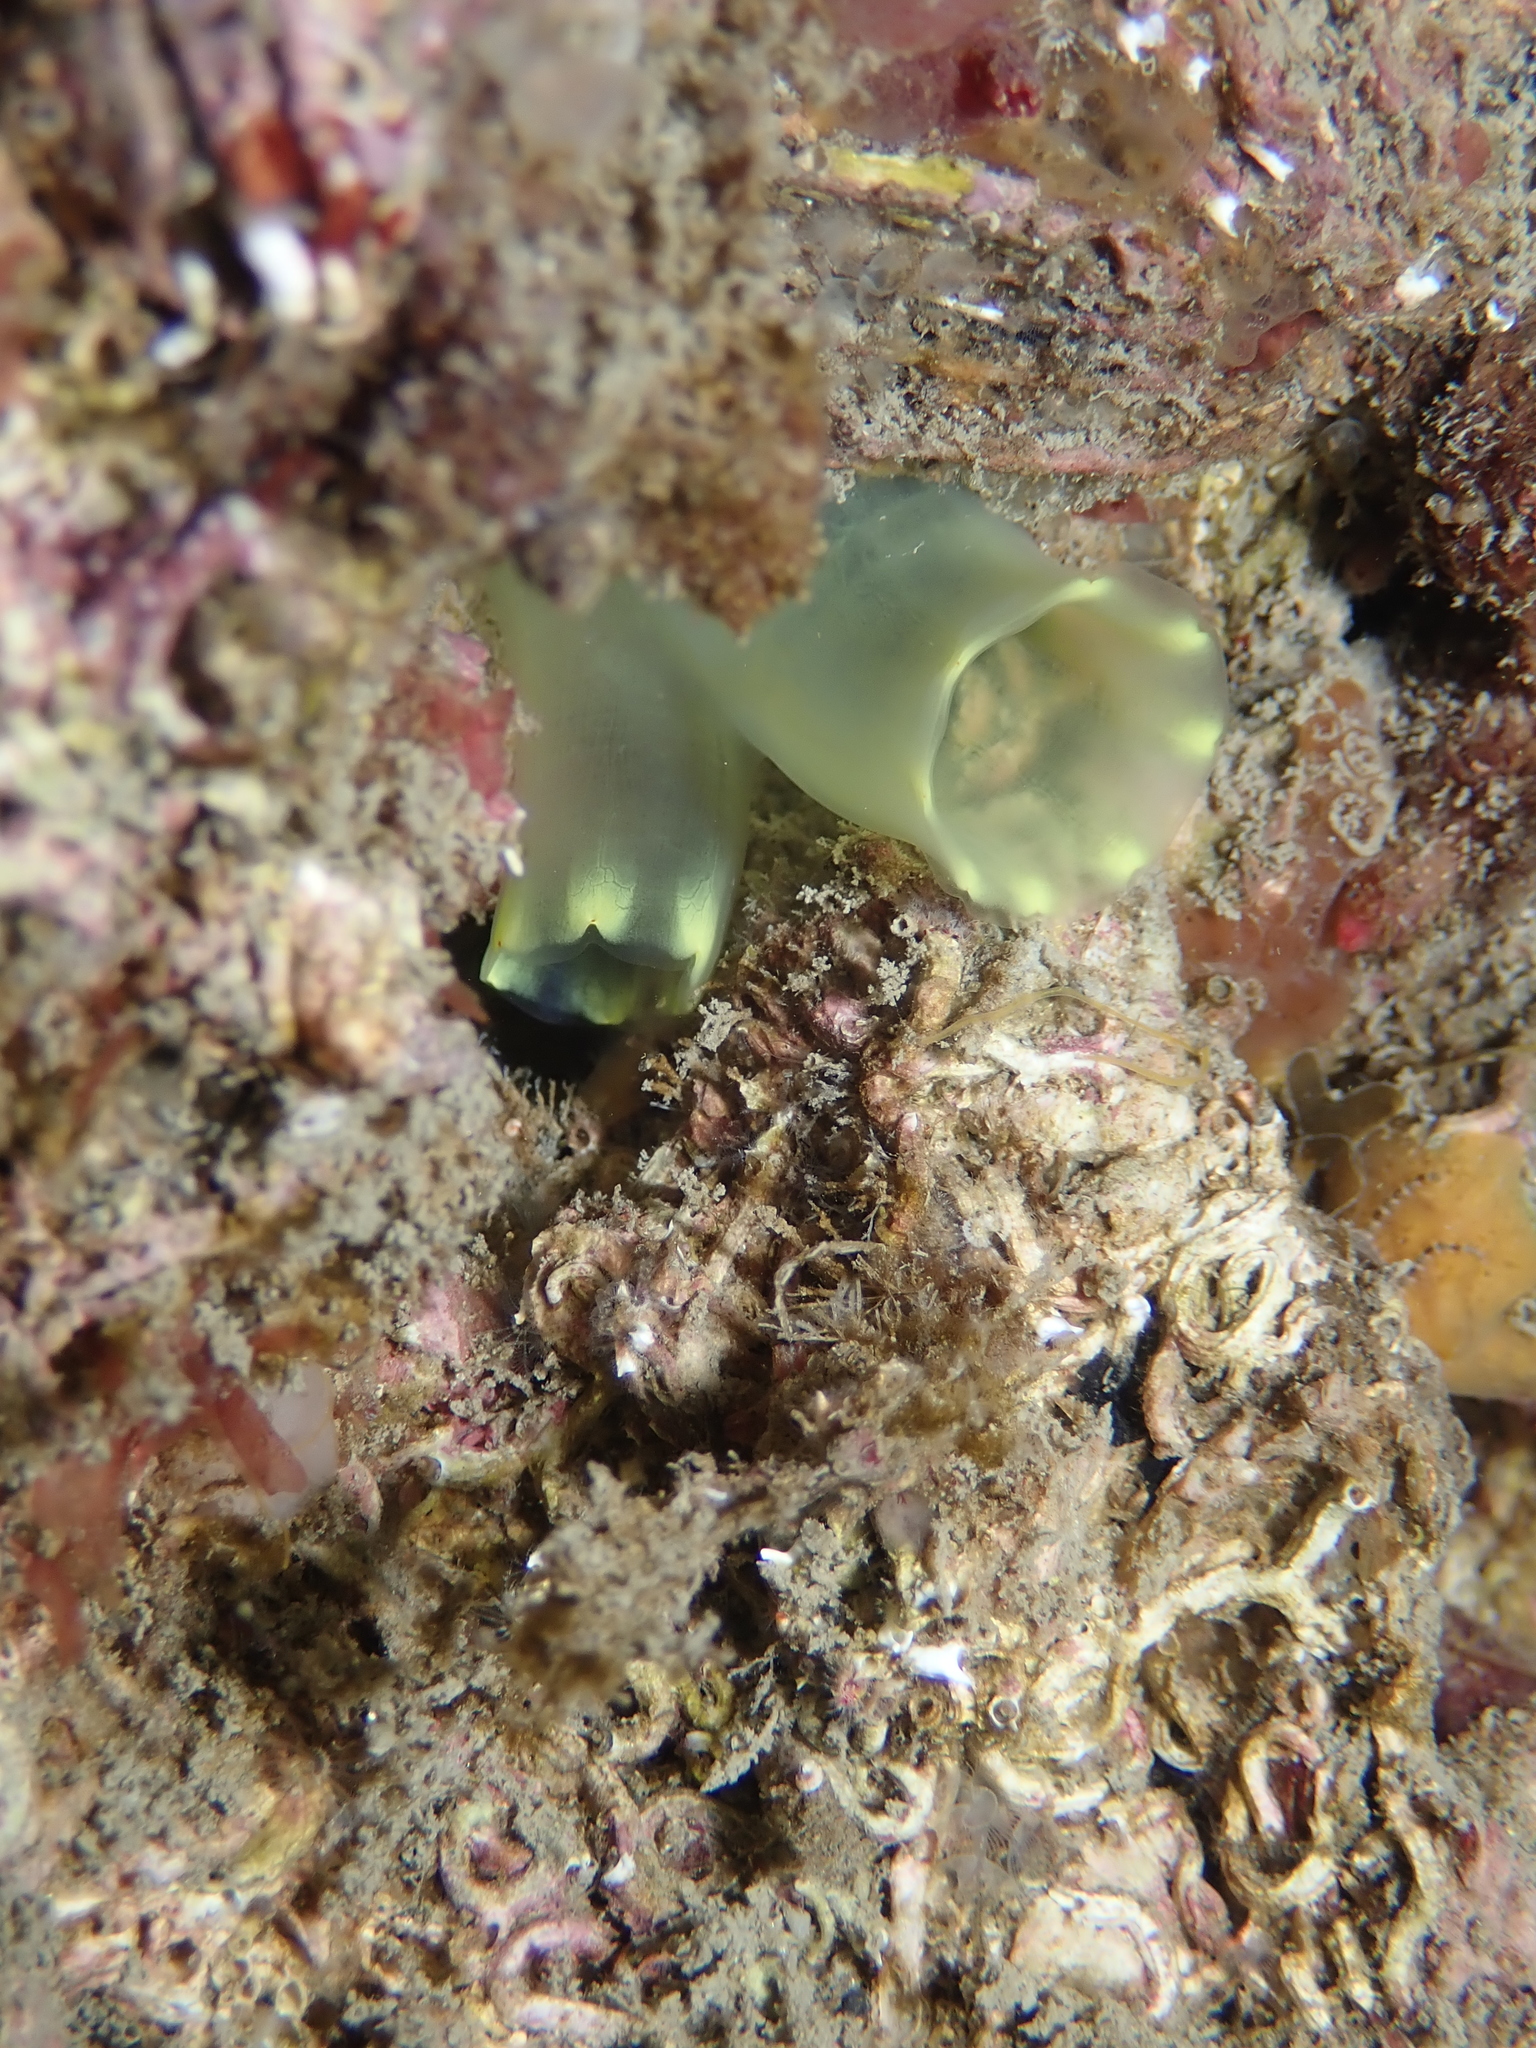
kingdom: Animalia
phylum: Chordata
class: Ascidiacea
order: Phlebobranchia
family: Cionidae
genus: Ciona
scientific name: Ciona edwardsi
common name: Yellow sea squirt
